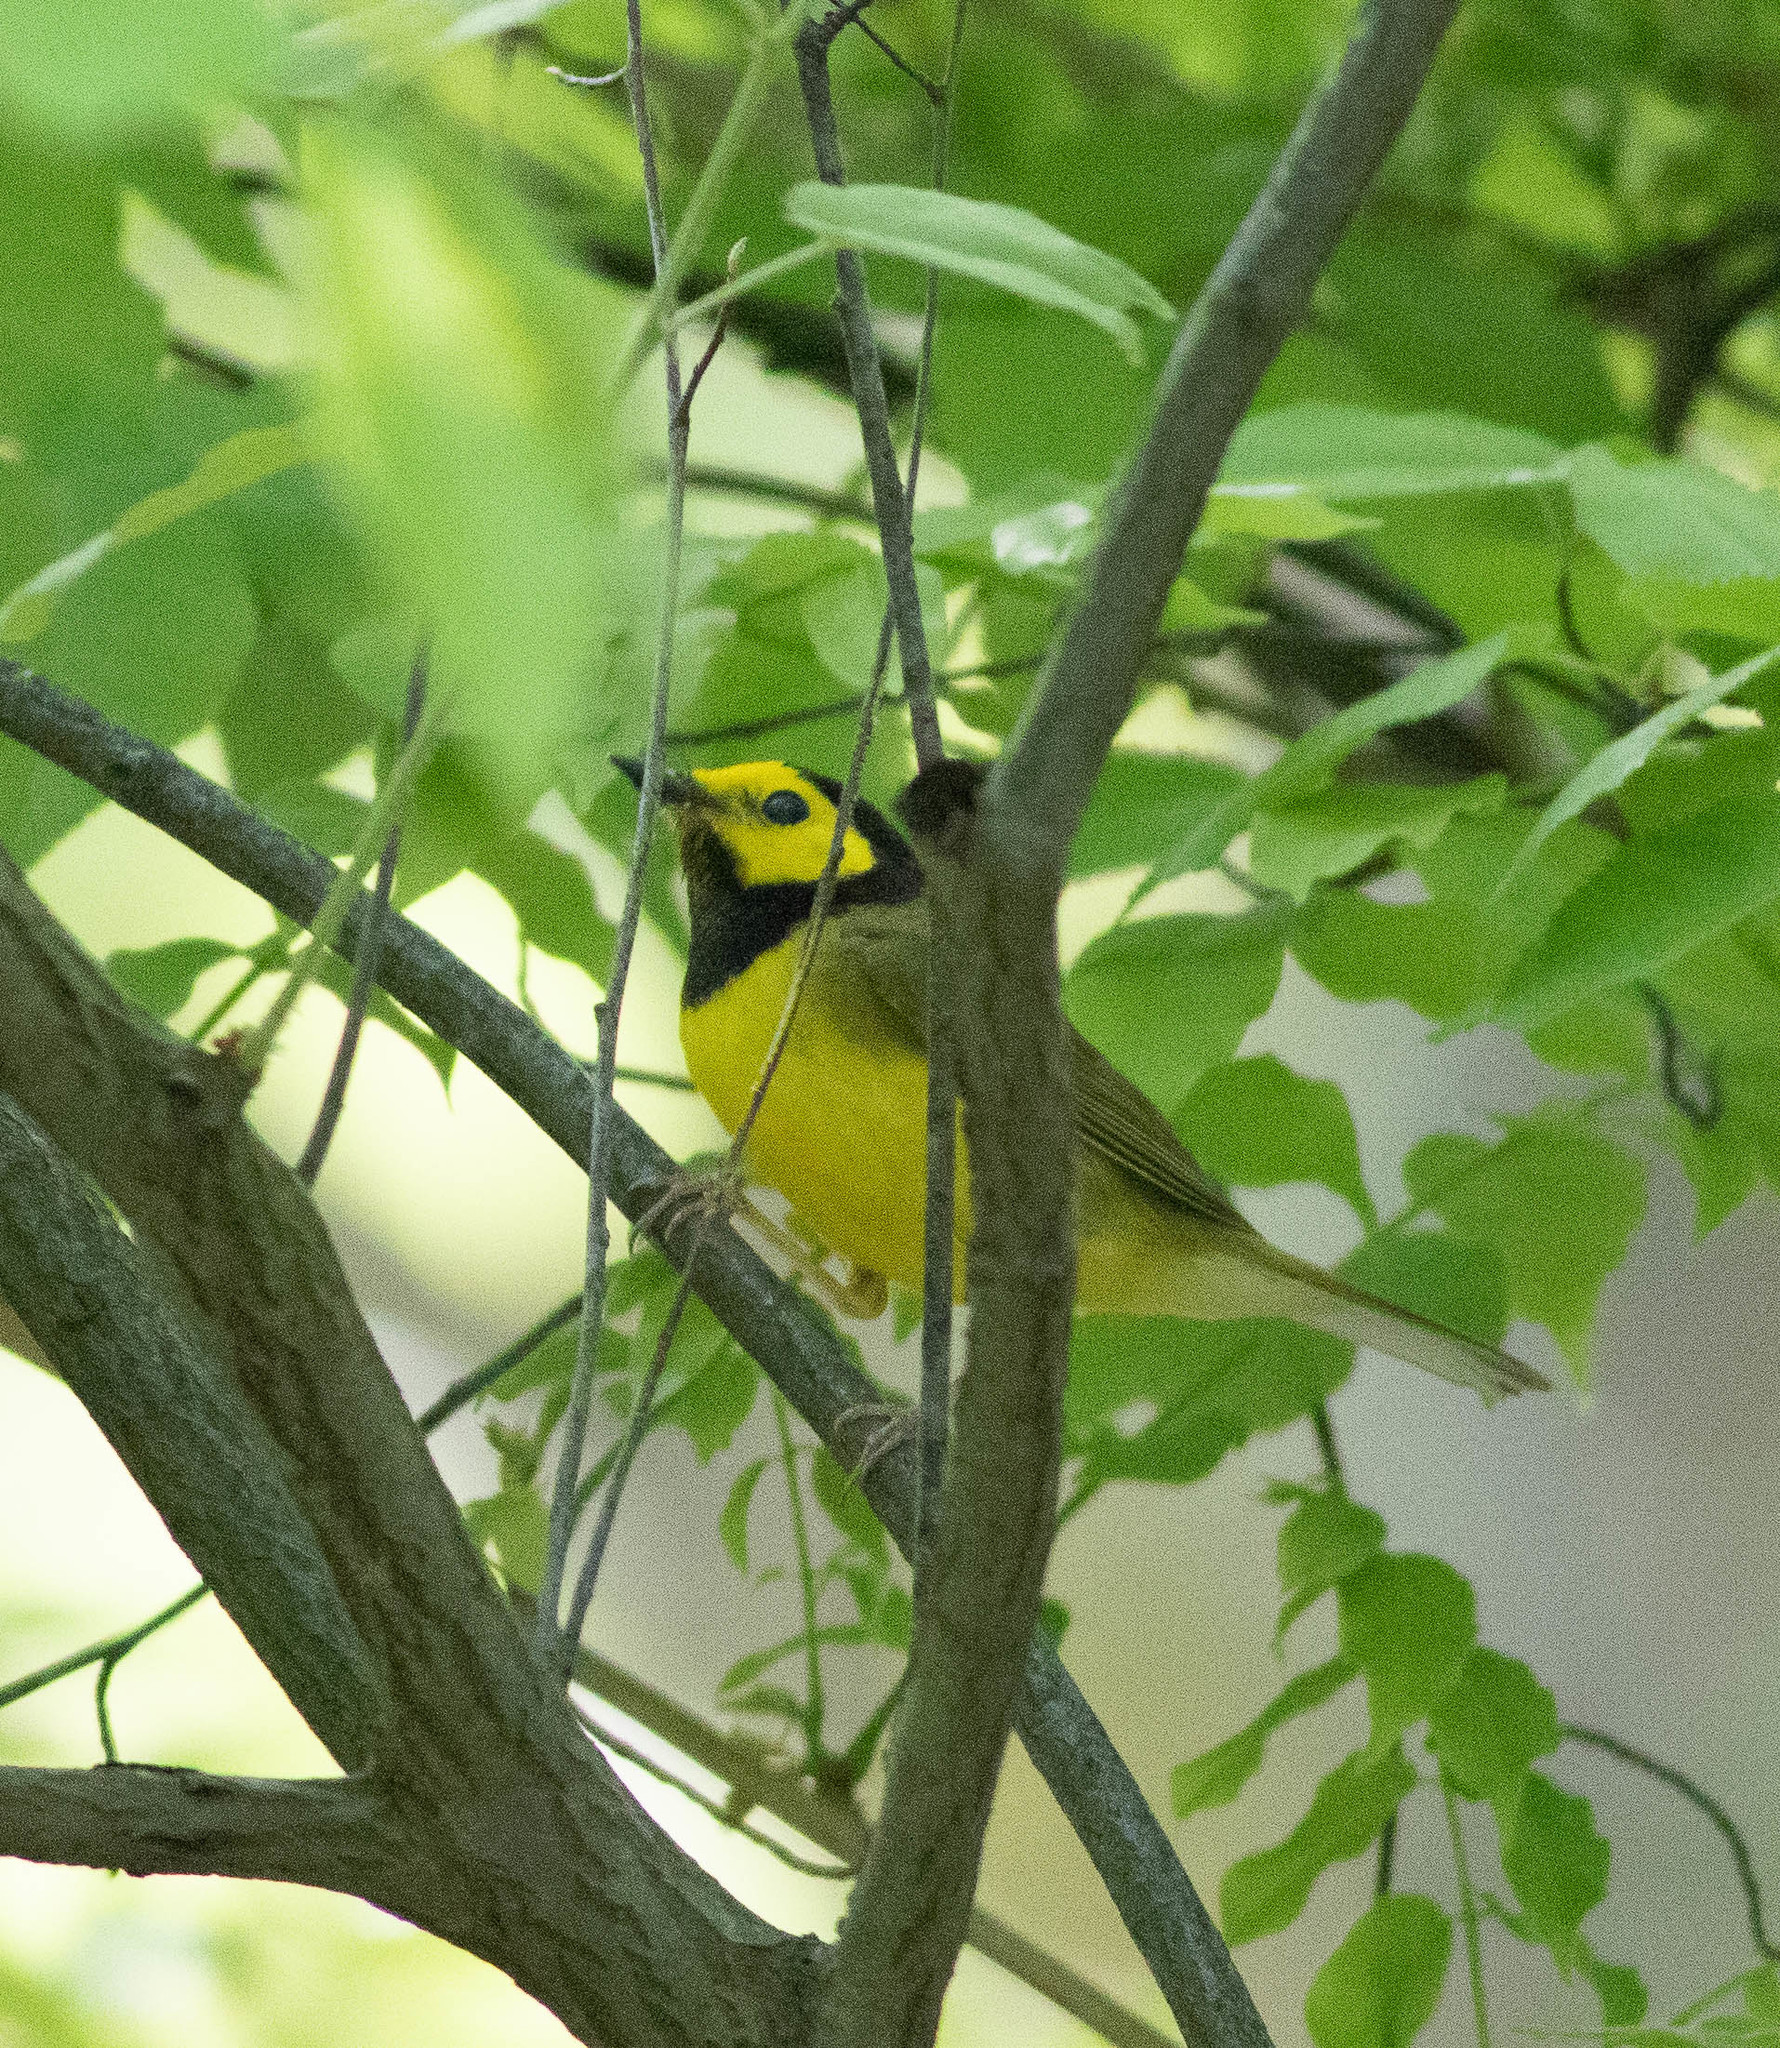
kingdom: Animalia
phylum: Chordata
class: Aves
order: Passeriformes
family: Parulidae
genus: Setophaga
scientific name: Setophaga citrina
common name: Hooded warbler
